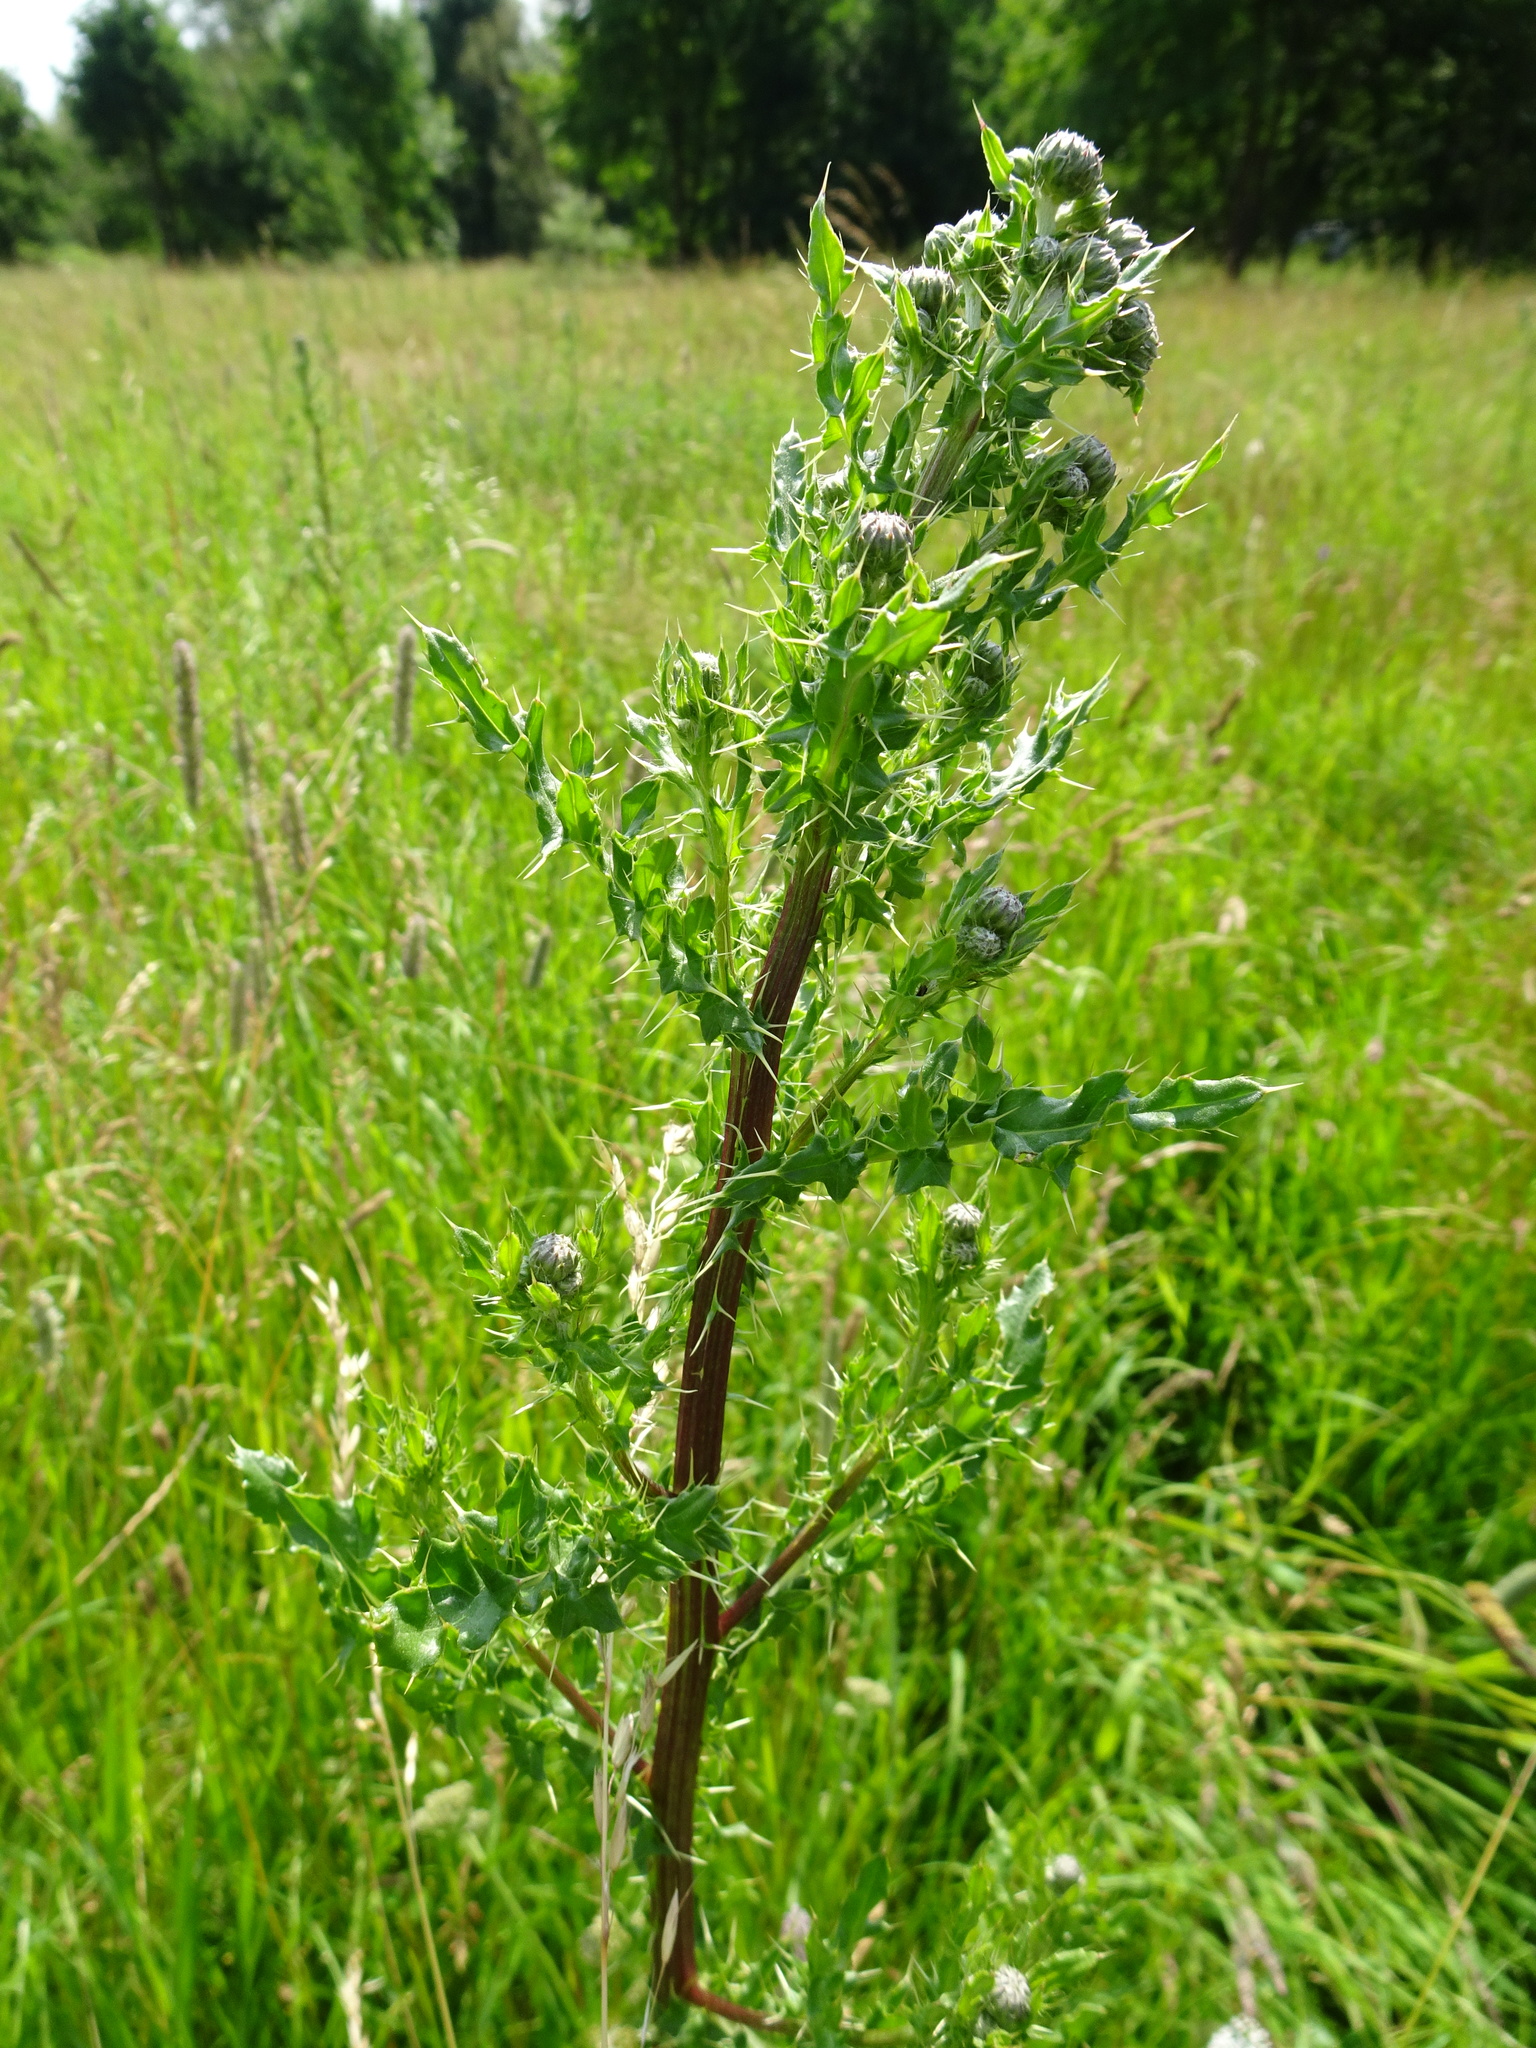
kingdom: Plantae
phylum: Tracheophyta
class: Magnoliopsida
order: Asterales
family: Asteraceae
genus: Cirsium
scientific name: Cirsium arvense
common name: Creeping thistle
